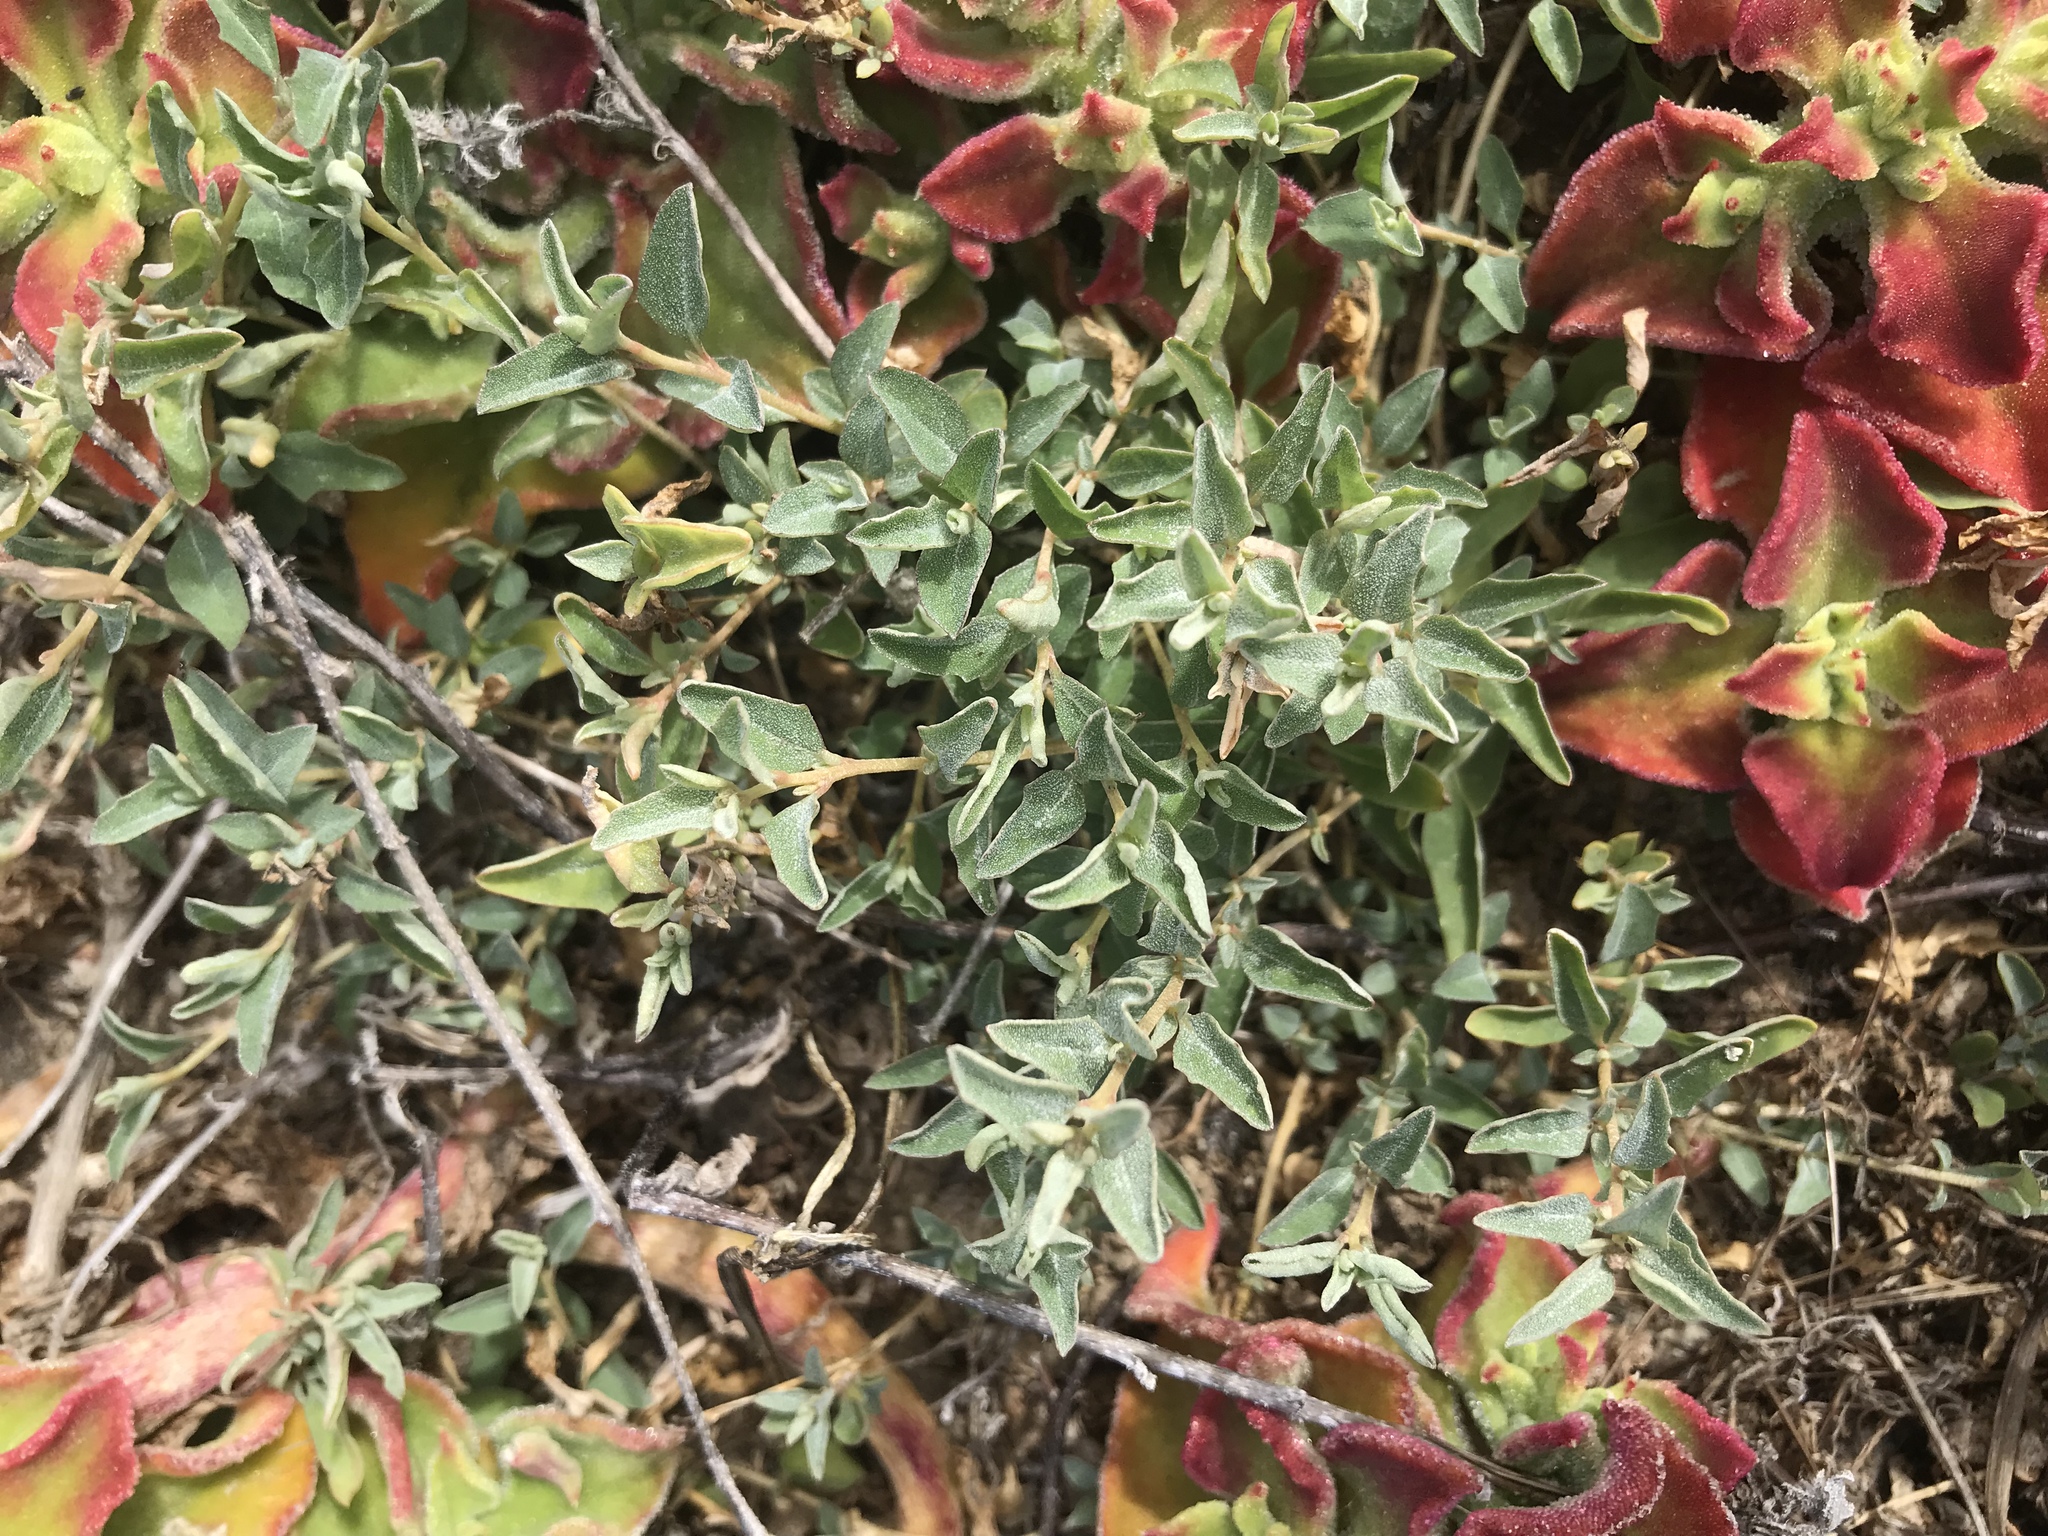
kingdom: Plantae
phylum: Tracheophyta
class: Magnoliopsida
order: Caryophyllales
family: Amaranthaceae
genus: Atriplex
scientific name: Atriplex semibaccata
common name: Australian saltbush
